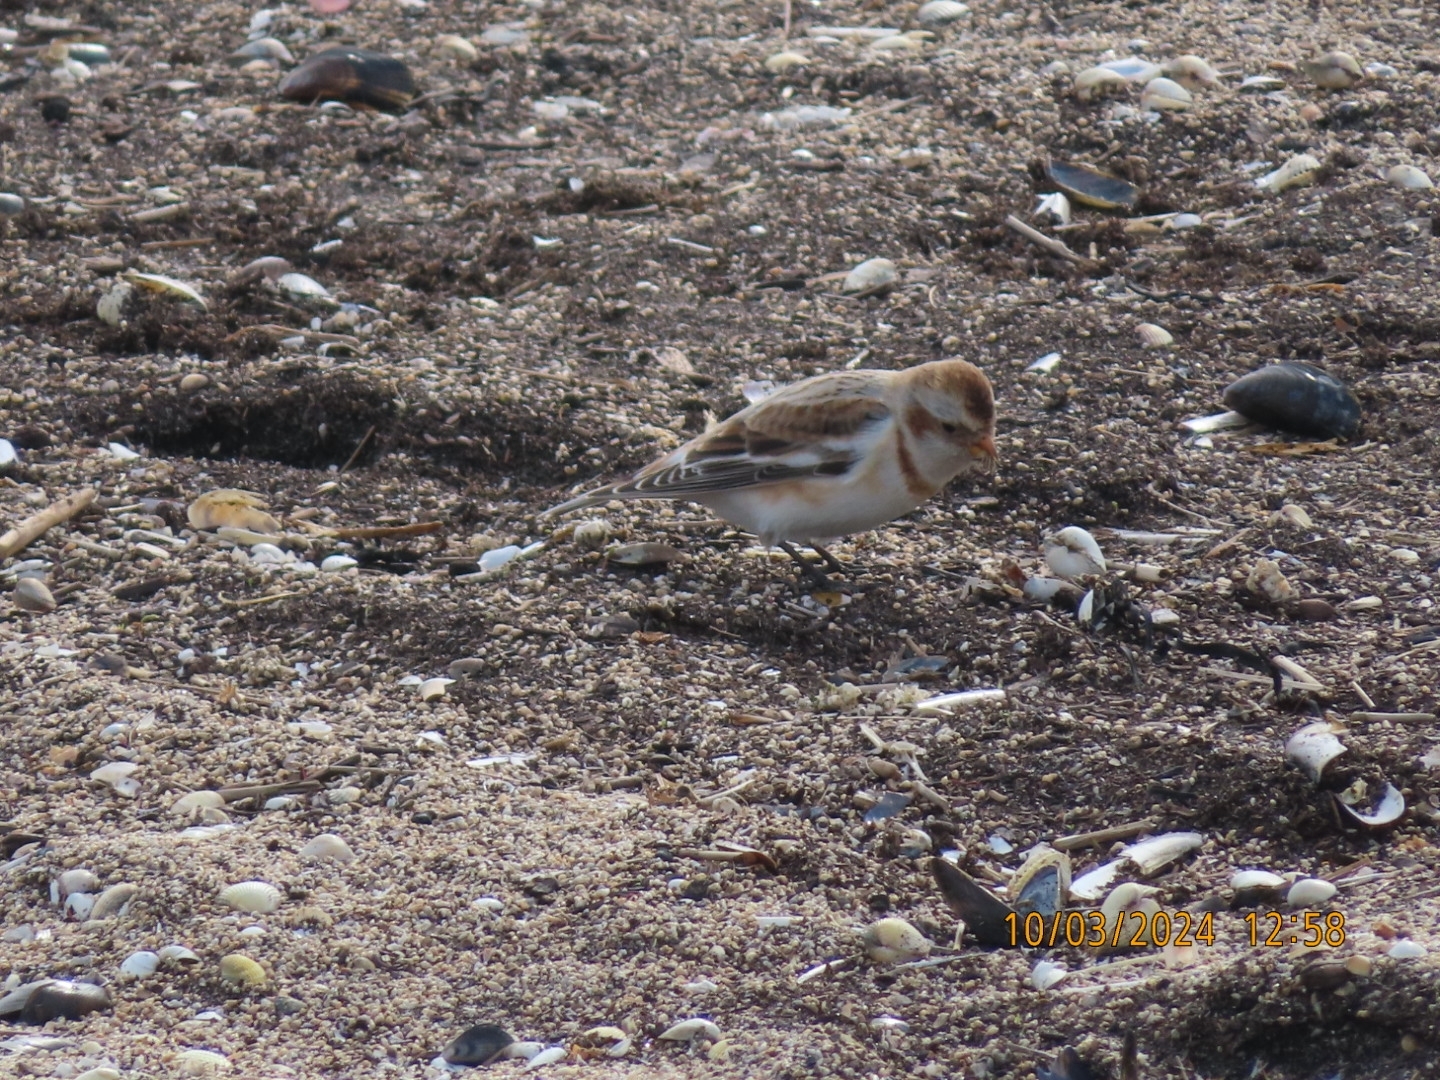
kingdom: Animalia
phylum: Chordata
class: Aves
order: Passeriformes
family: Calcariidae
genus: Plectrophenax
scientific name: Plectrophenax nivalis
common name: Snow bunting
